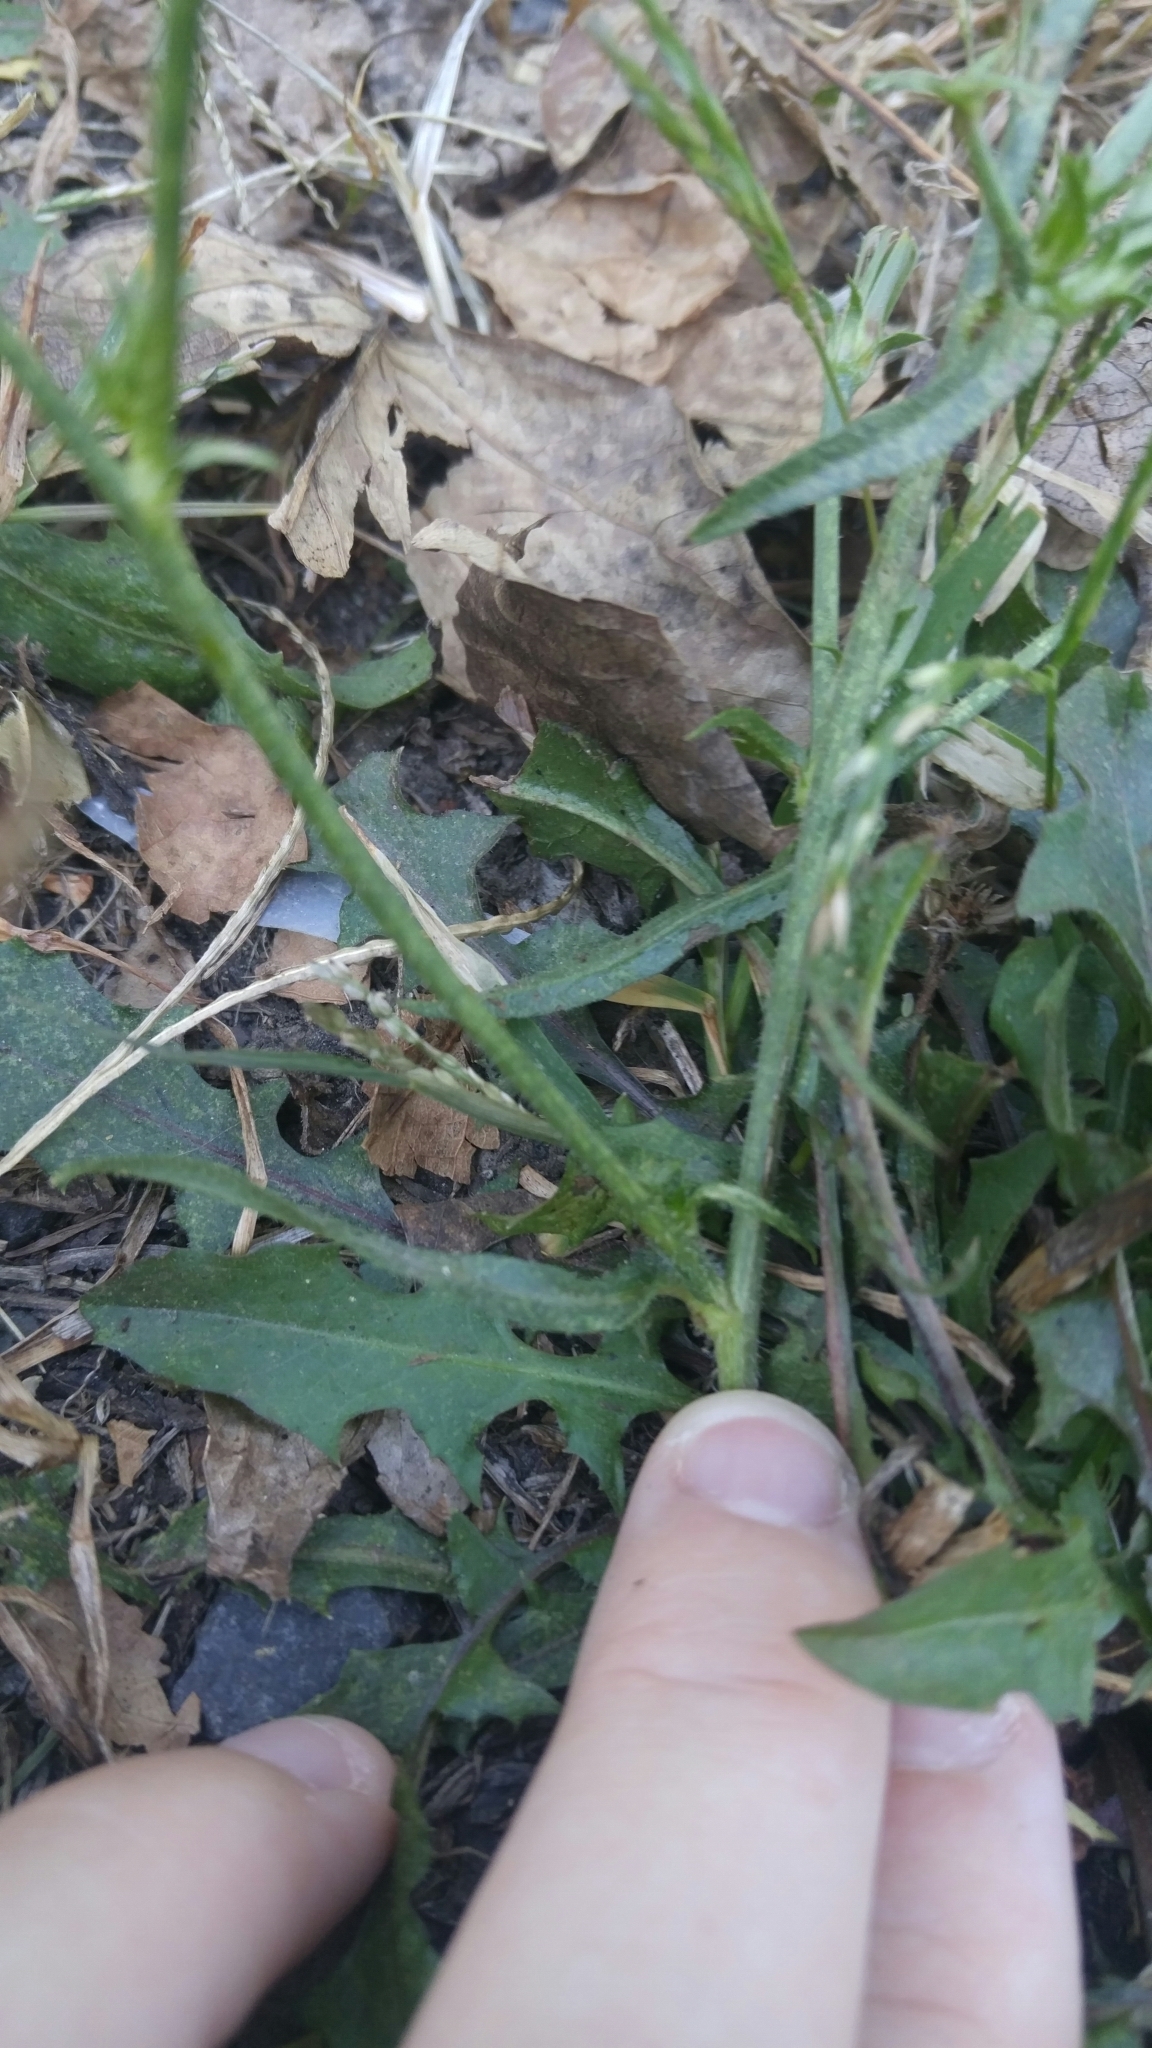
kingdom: Plantae
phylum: Tracheophyta
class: Magnoliopsida
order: Asterales
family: Asteraceae
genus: Cichorium
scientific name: Cichorium intybus
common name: Chicory
